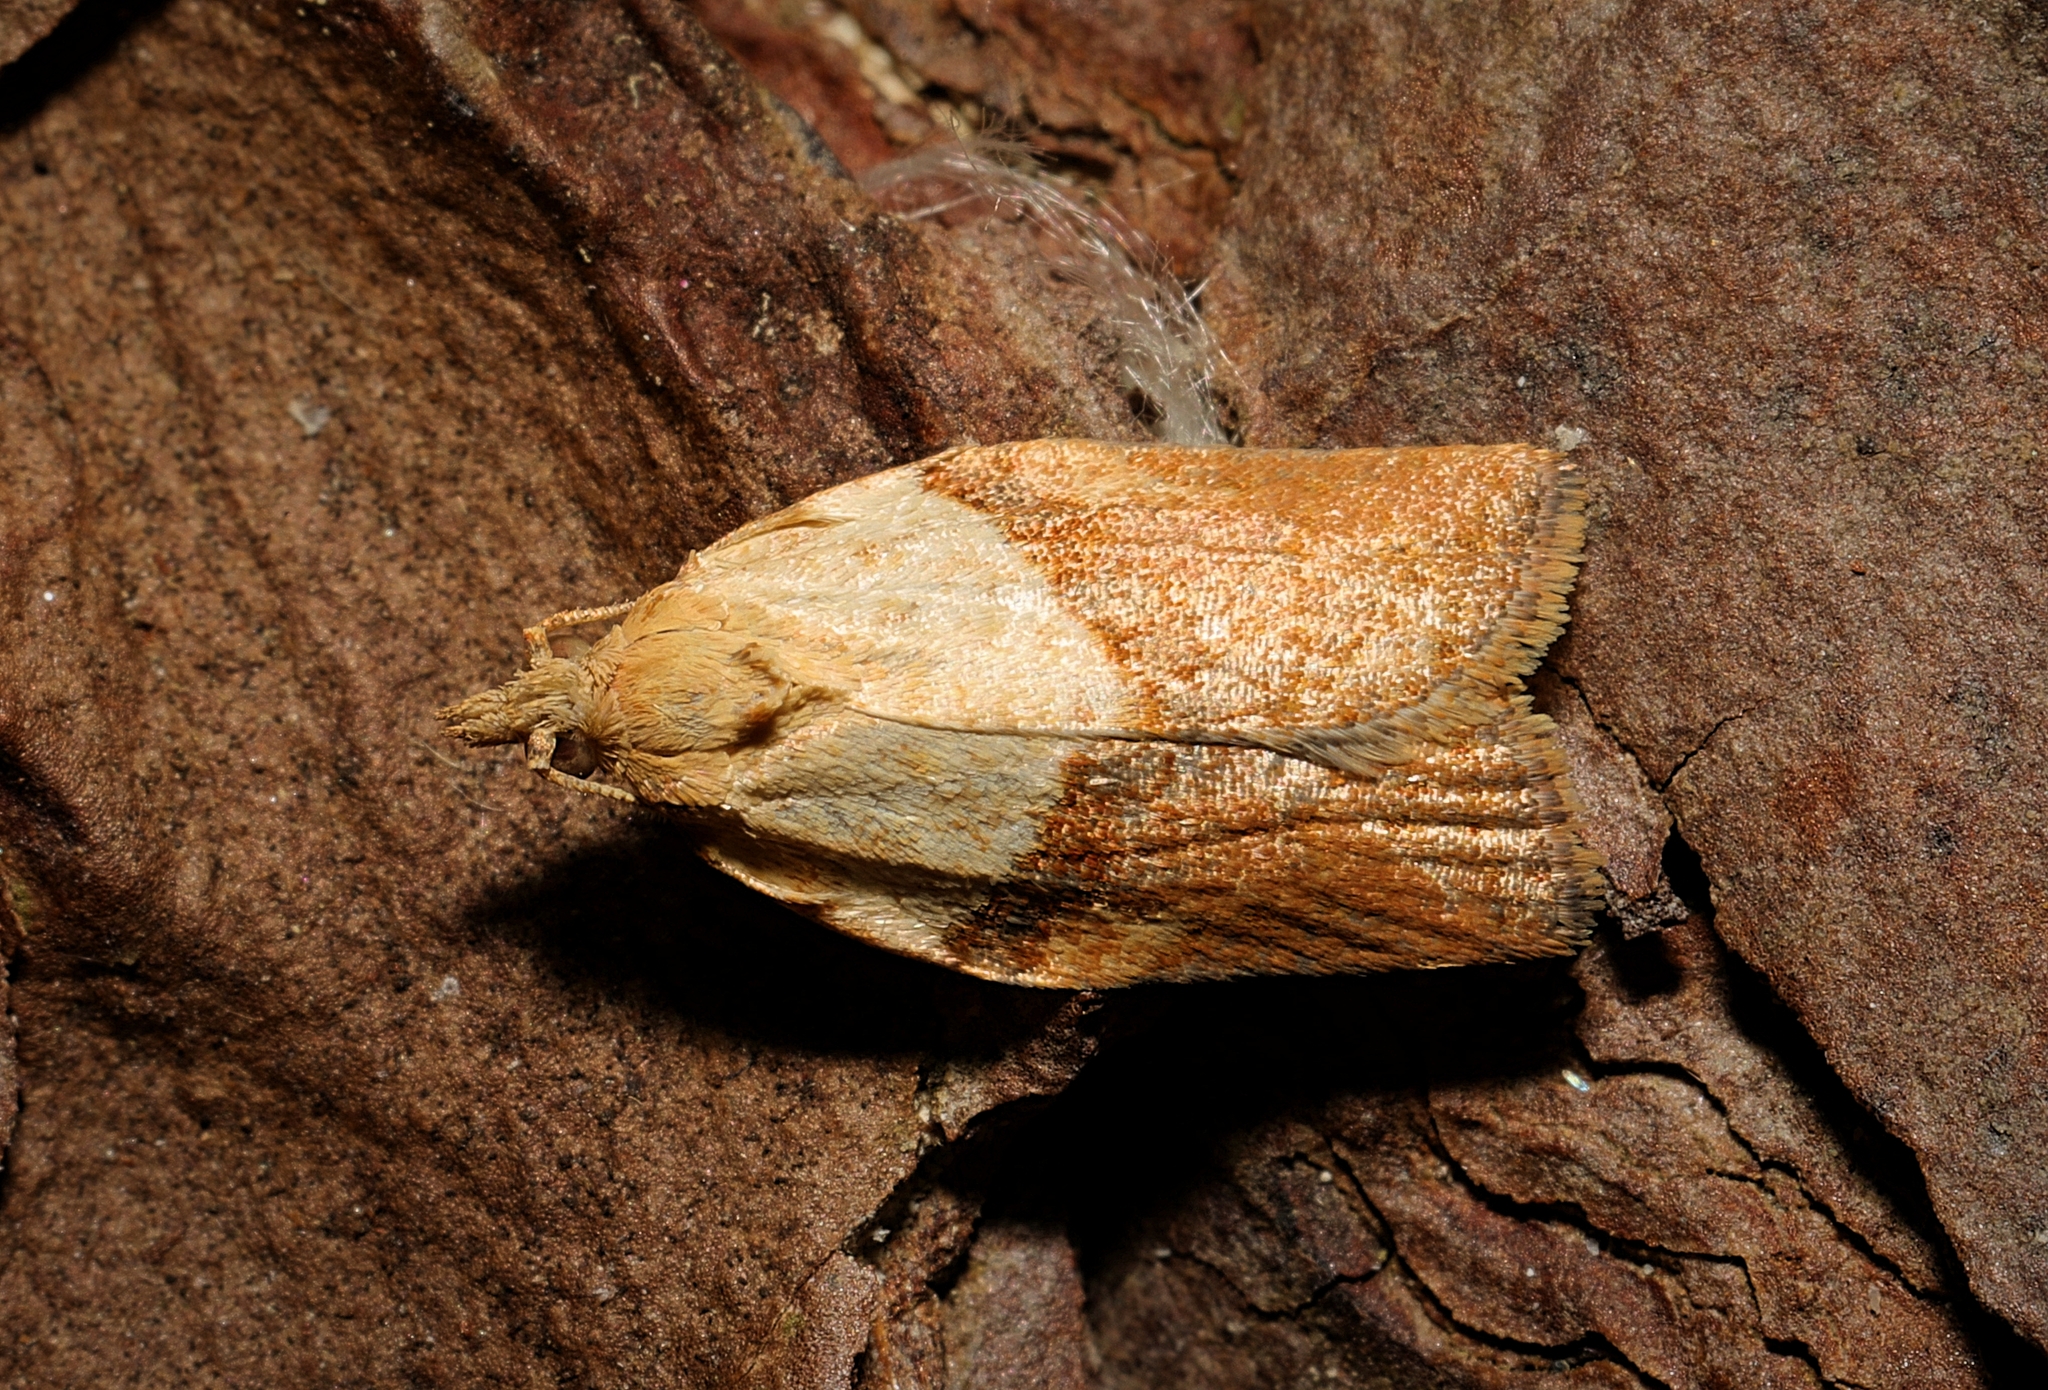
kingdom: Animalia
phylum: Arthropoda
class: Insecta
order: Lepidoptera
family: Tortricidae
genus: Epiphyas
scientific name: Epiphyas postvittana
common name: Light brown apple moth
